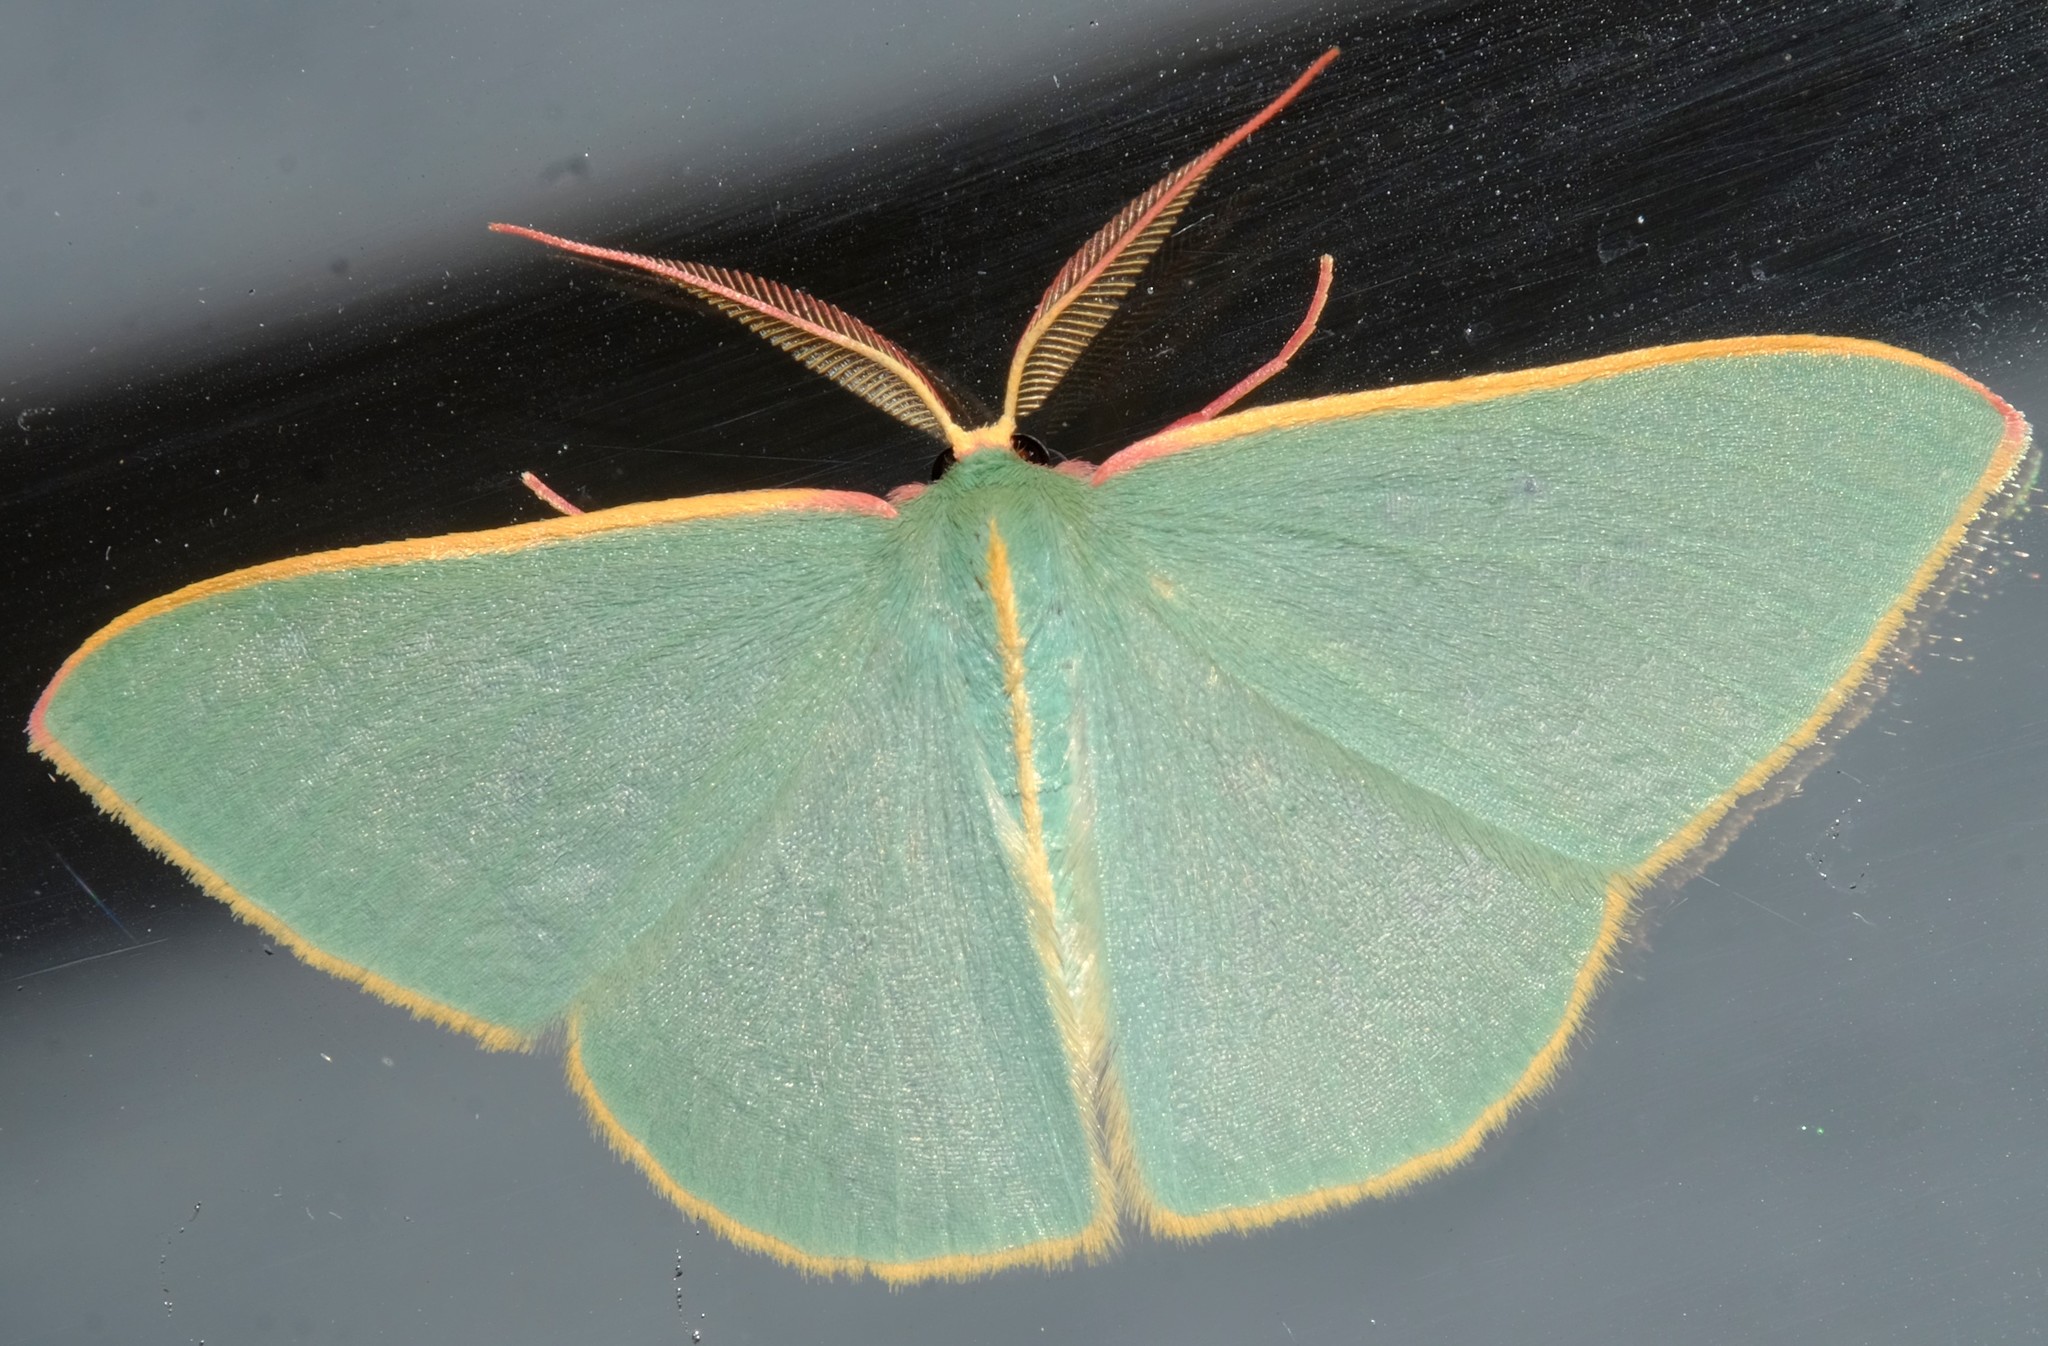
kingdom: Animalia
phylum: Arthropoda
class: Insecta
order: Lepidoptera
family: Geometridae
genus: Chlorocoma
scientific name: Chlorocoma assimilis
